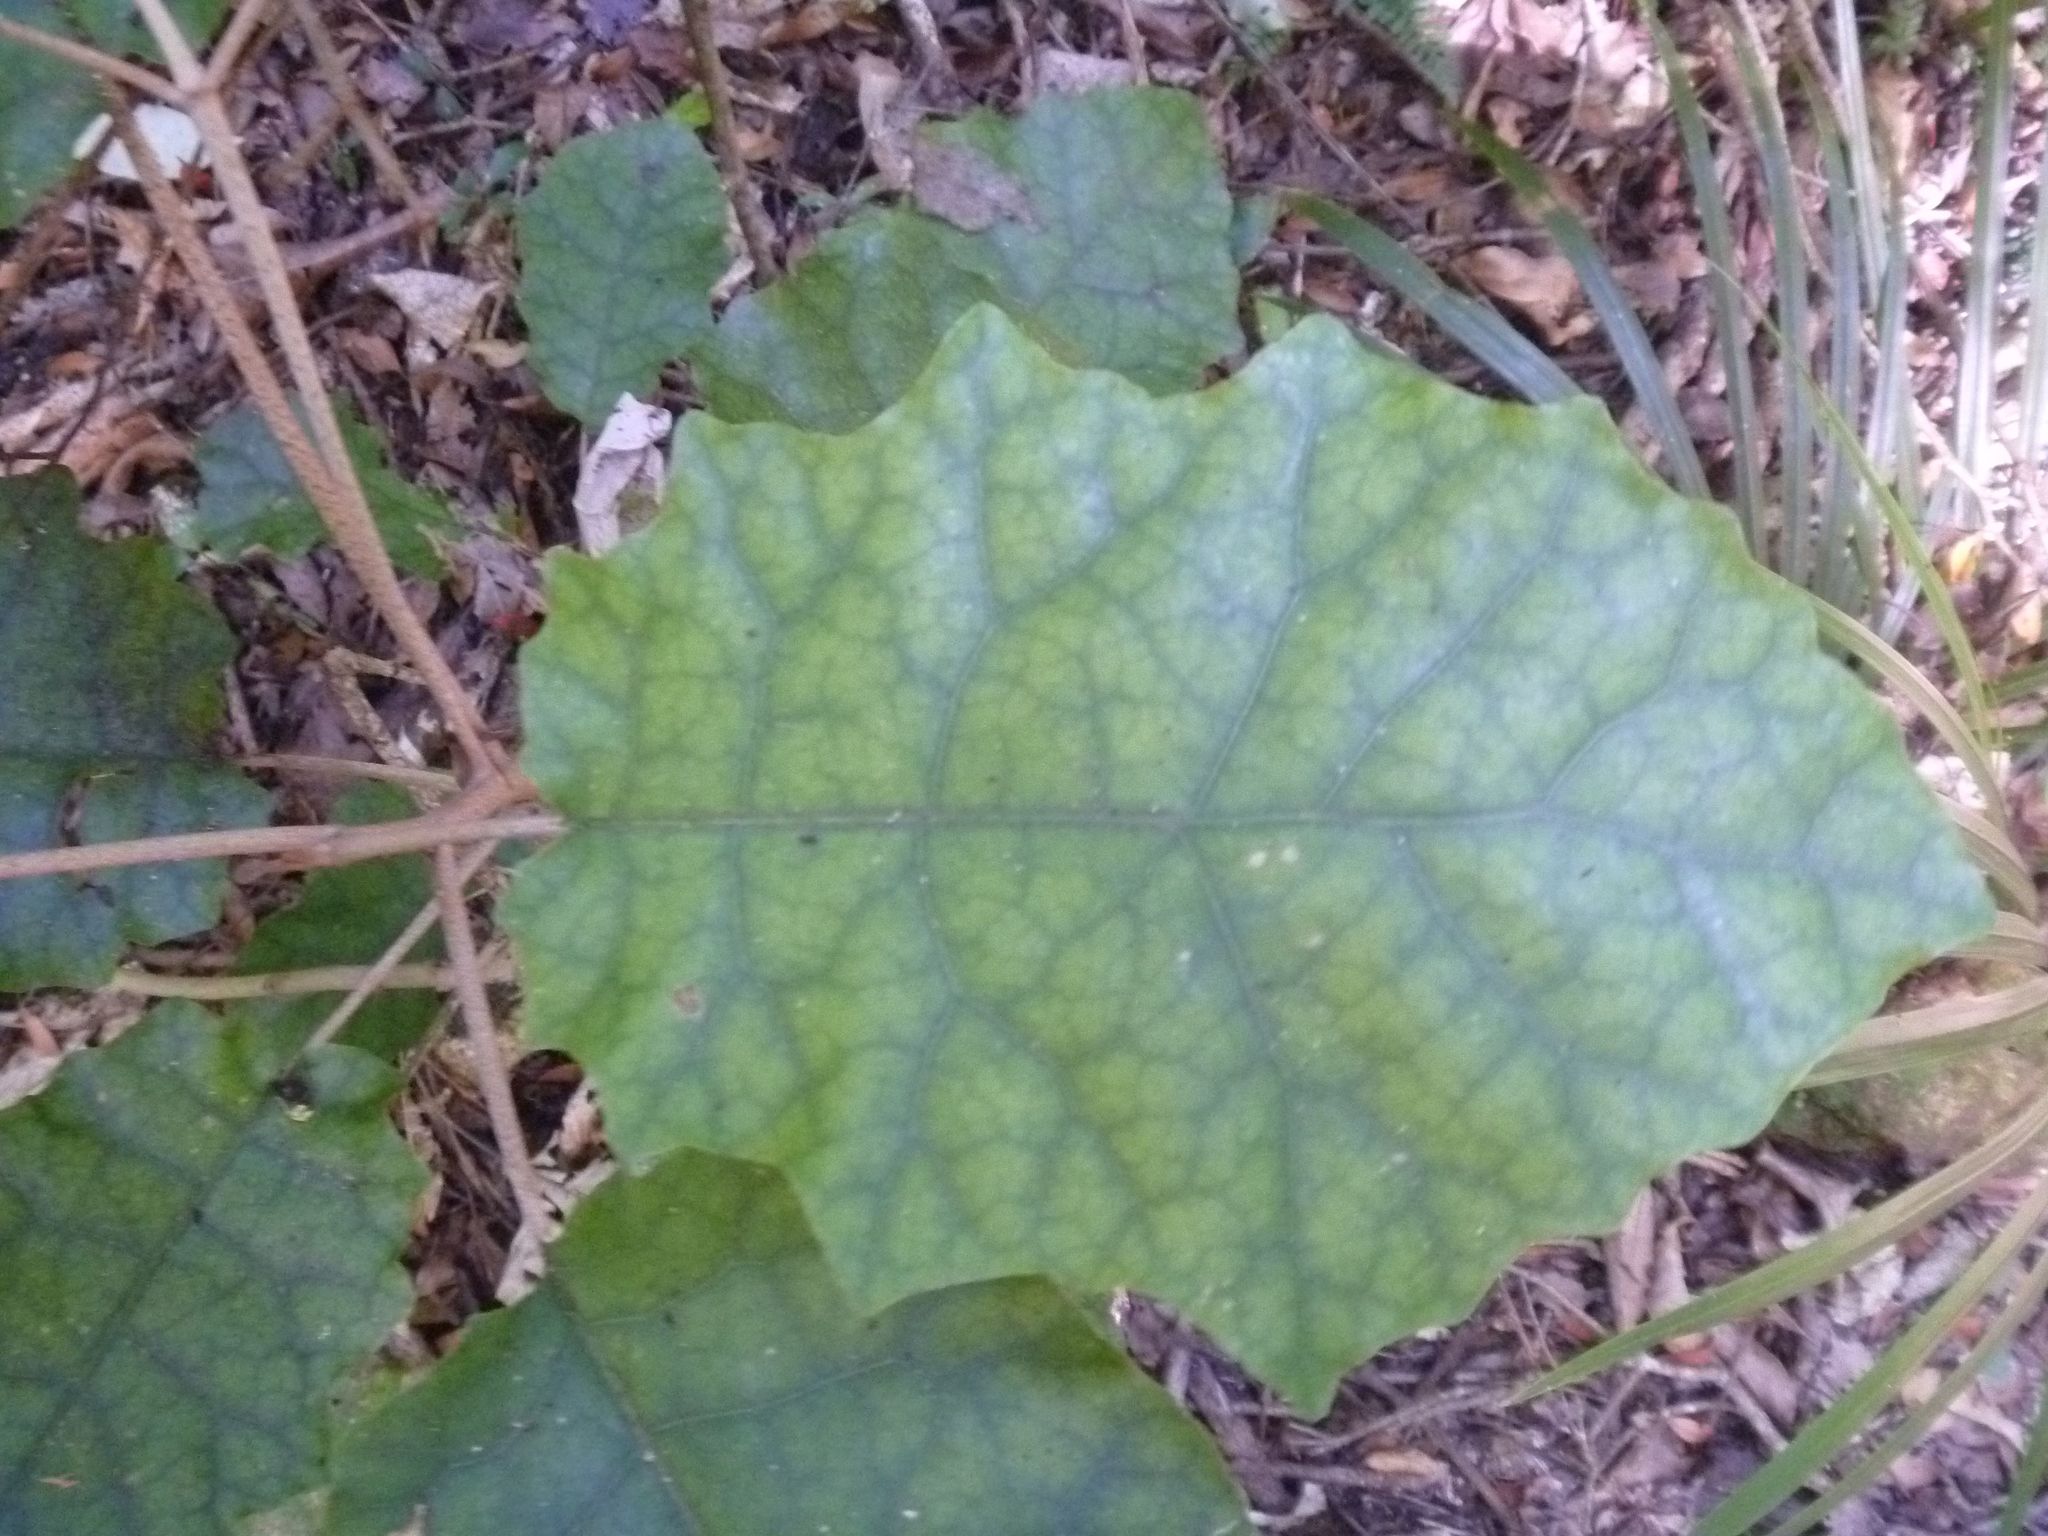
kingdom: Plantae
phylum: Tracheophyta
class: Magnoliopsida
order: Asterales
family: Asteraceae
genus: Brachyglottis
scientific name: Brachyglottis repanda
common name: Hedge ragwort
